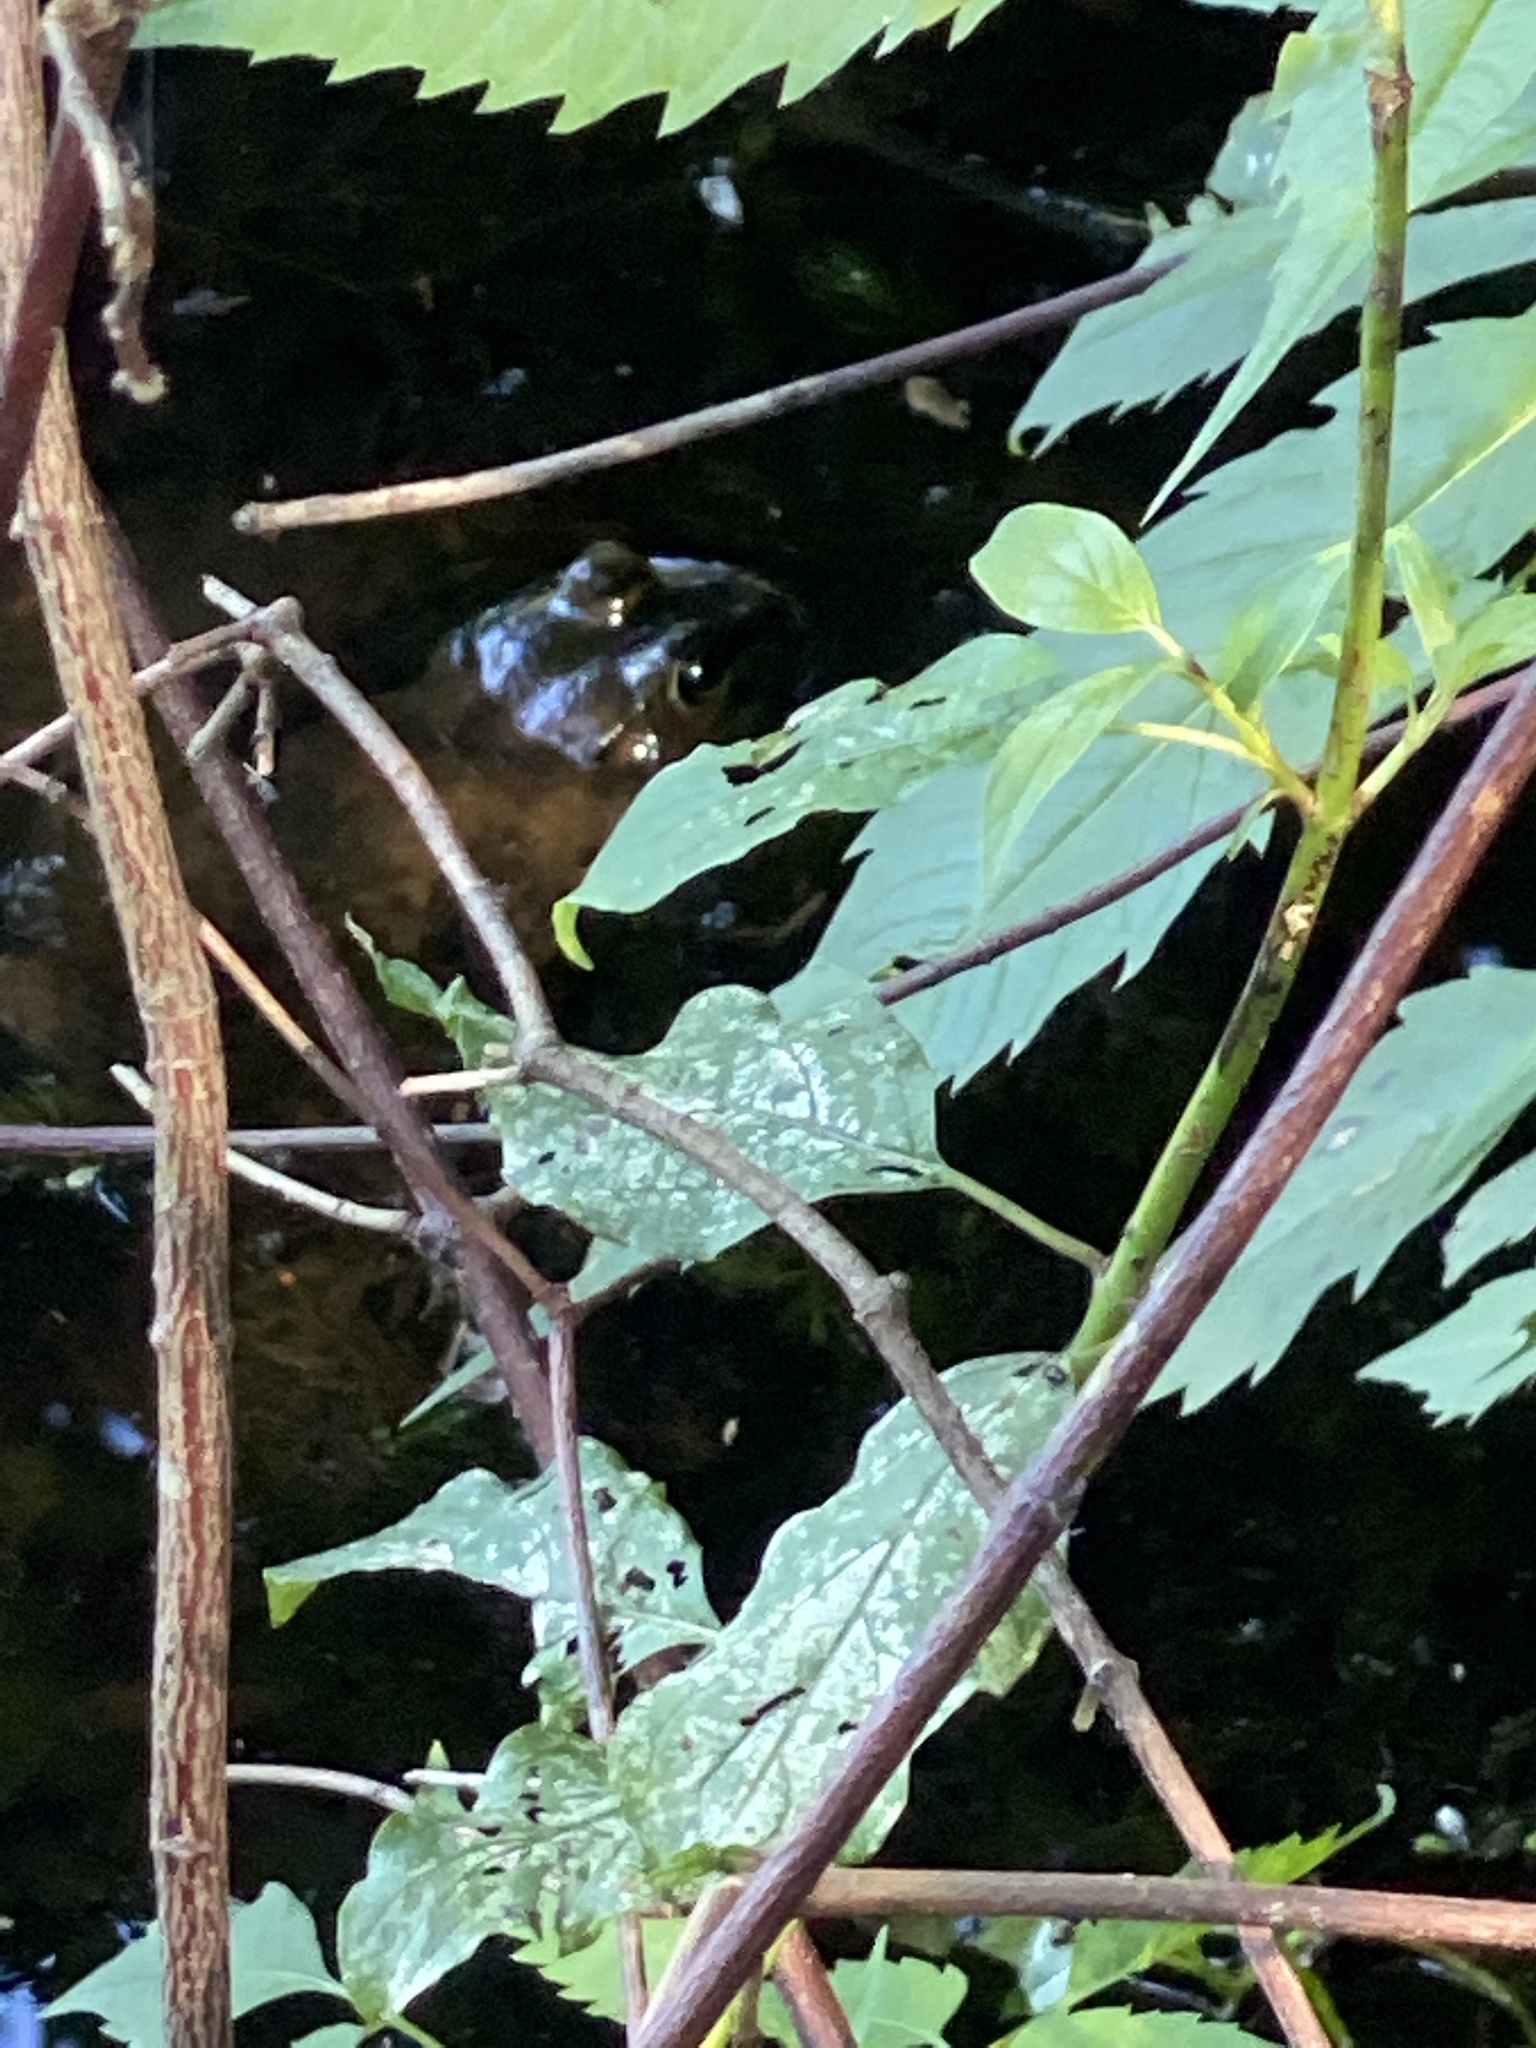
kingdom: Animalia
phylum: Chordata
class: Amphibia
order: Anura
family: Ranidae
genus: Lithobates
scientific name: Lithobates catesbeianus
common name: American bullfrog
